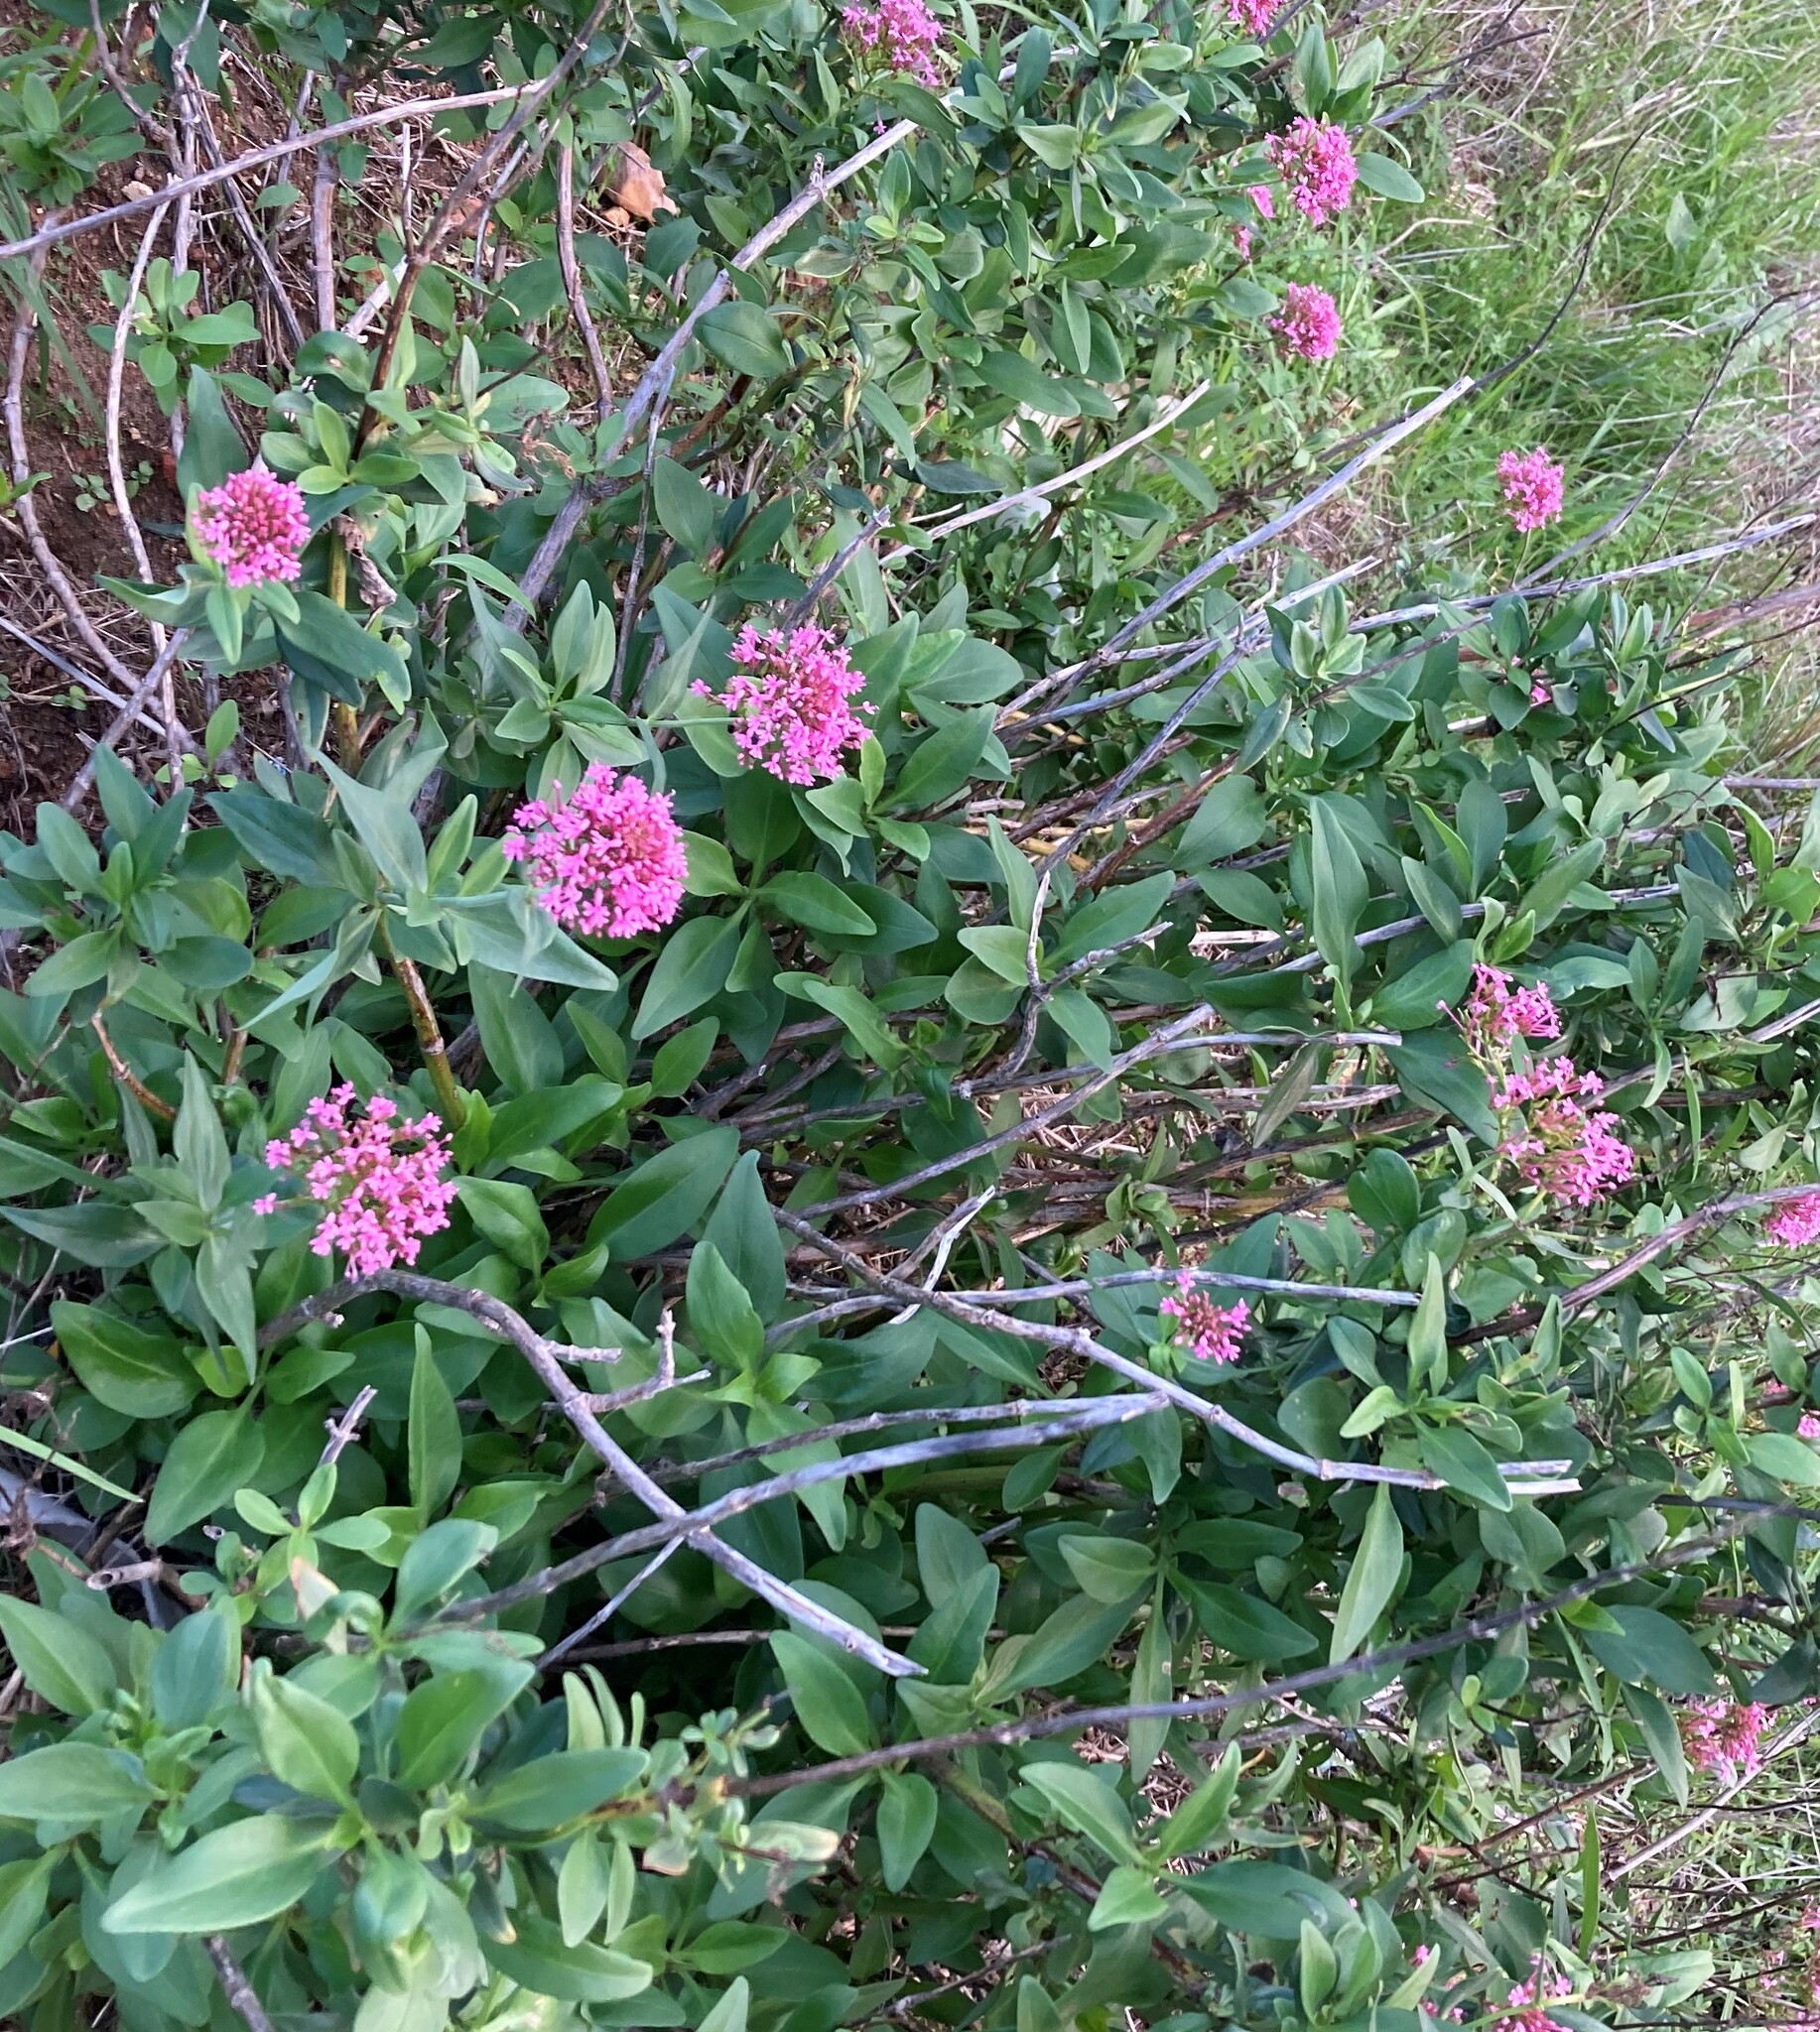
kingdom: Plantae
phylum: Tracheophyta
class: Magnoliopsida
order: Dipsacales
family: Caprifoliaceae
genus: Centranthus
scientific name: Centranthus ruber
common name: Red valerian
